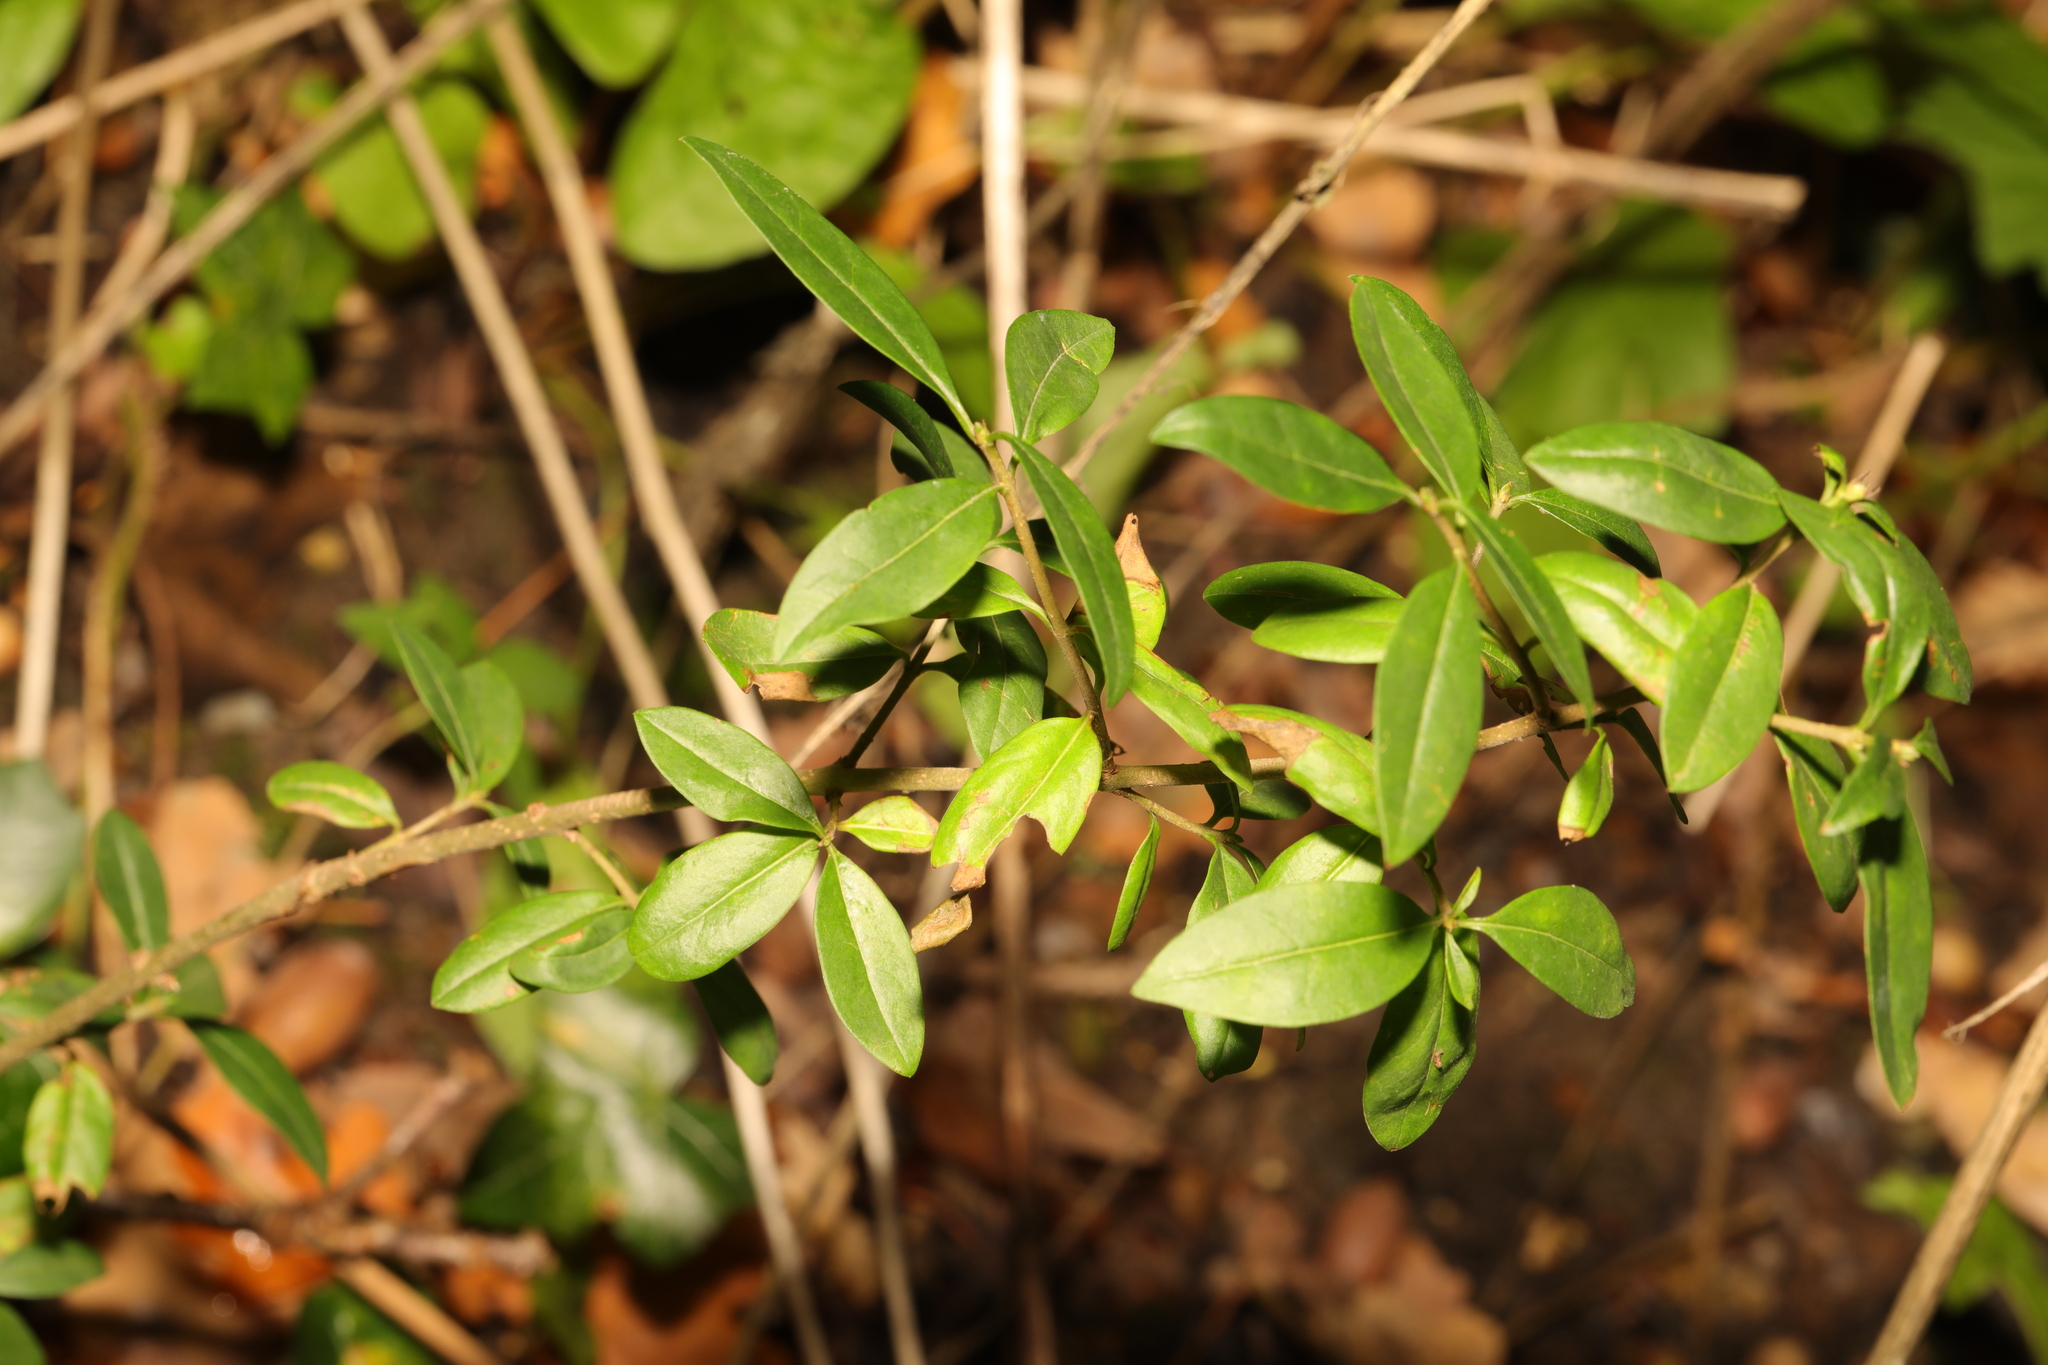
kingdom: Plantae
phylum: Tracheophyta
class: Magnoliopsida
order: Lamiales
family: Oleaceae
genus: Ligustrum
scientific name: Ligustrum vulgare
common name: Wild privet
